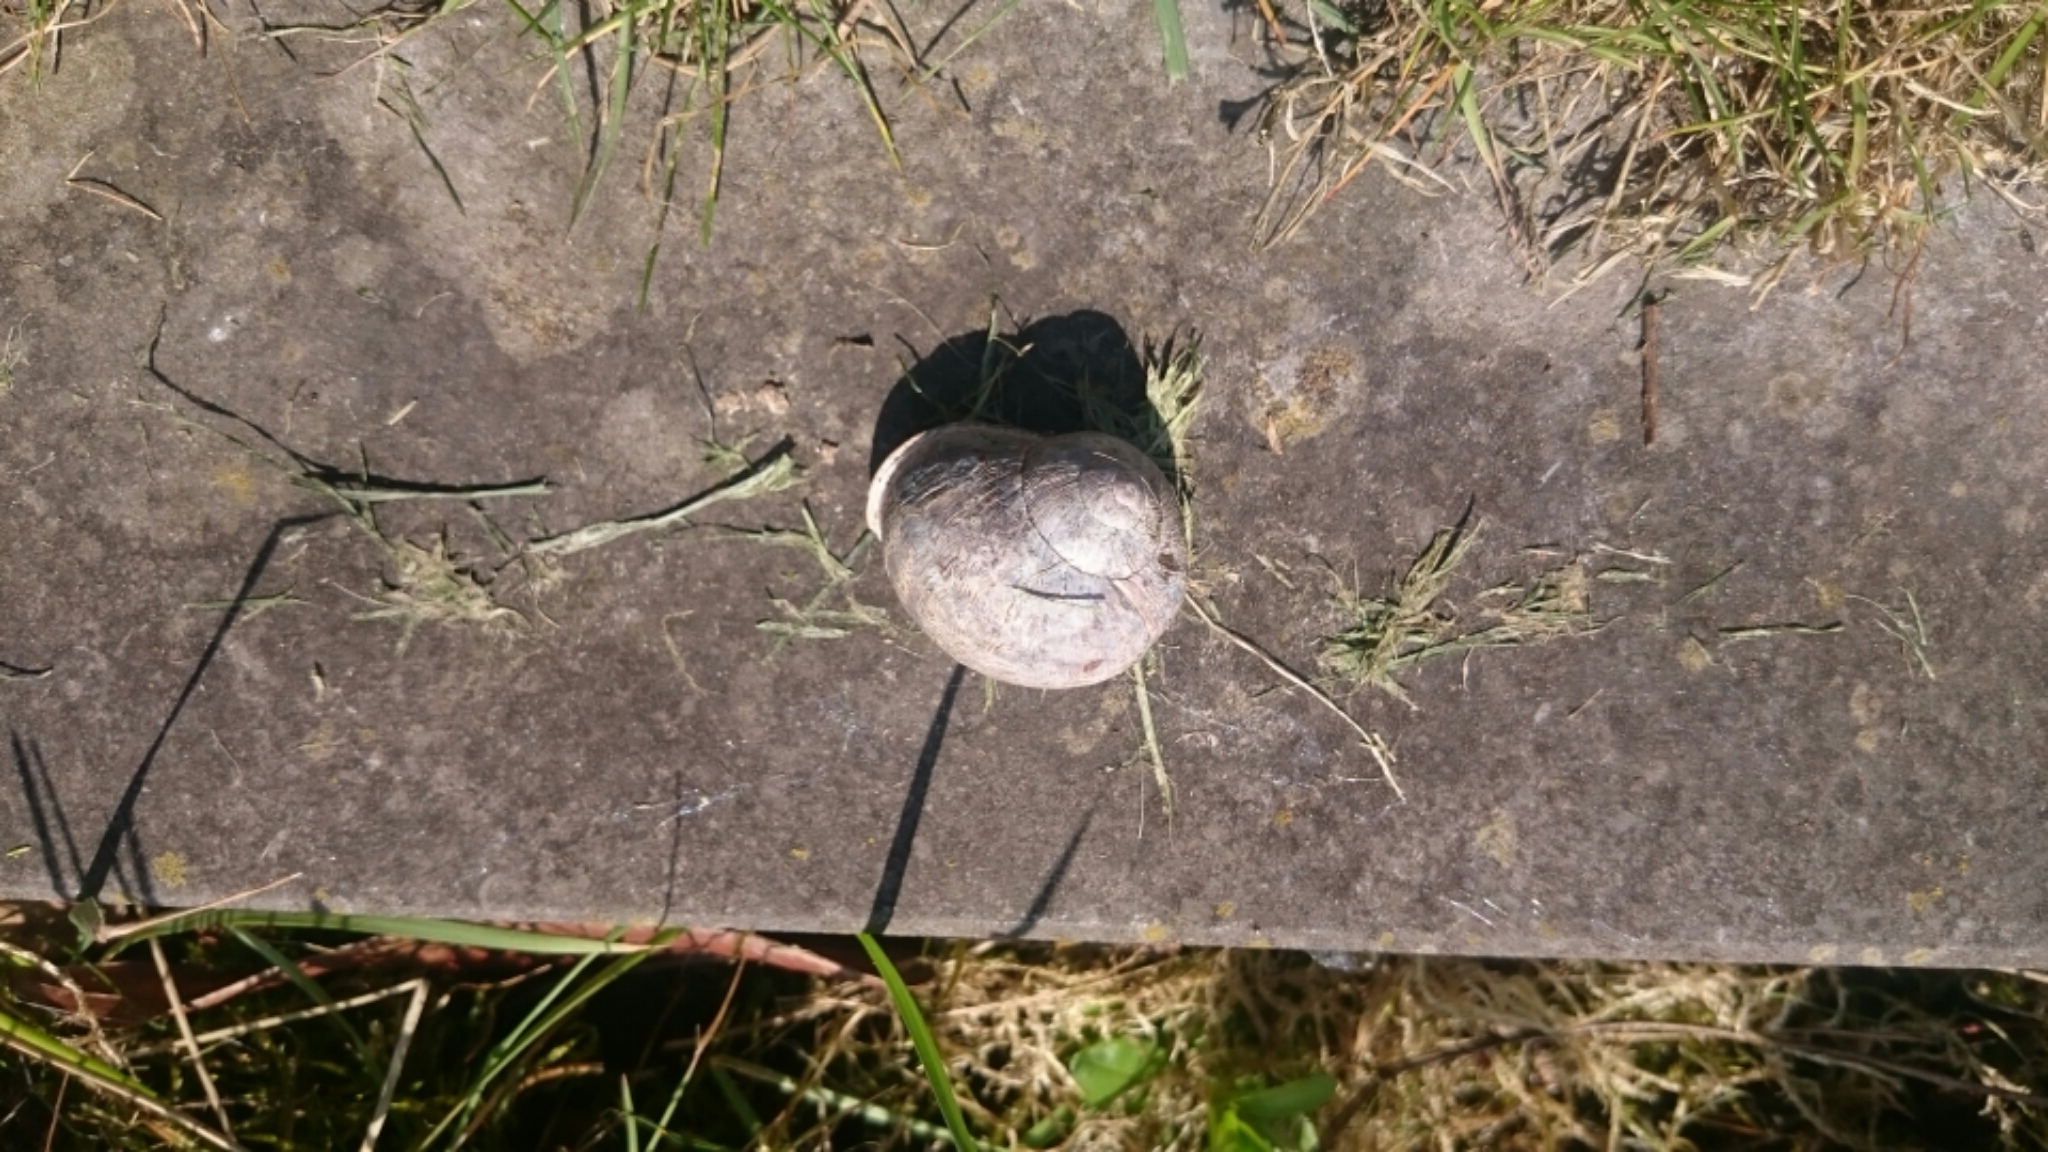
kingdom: Animalia
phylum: Mollusca
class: Gastropoda
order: Stylommatophora
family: Helicidae
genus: Cornu
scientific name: Cornu aspersum
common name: Brown garden snail
